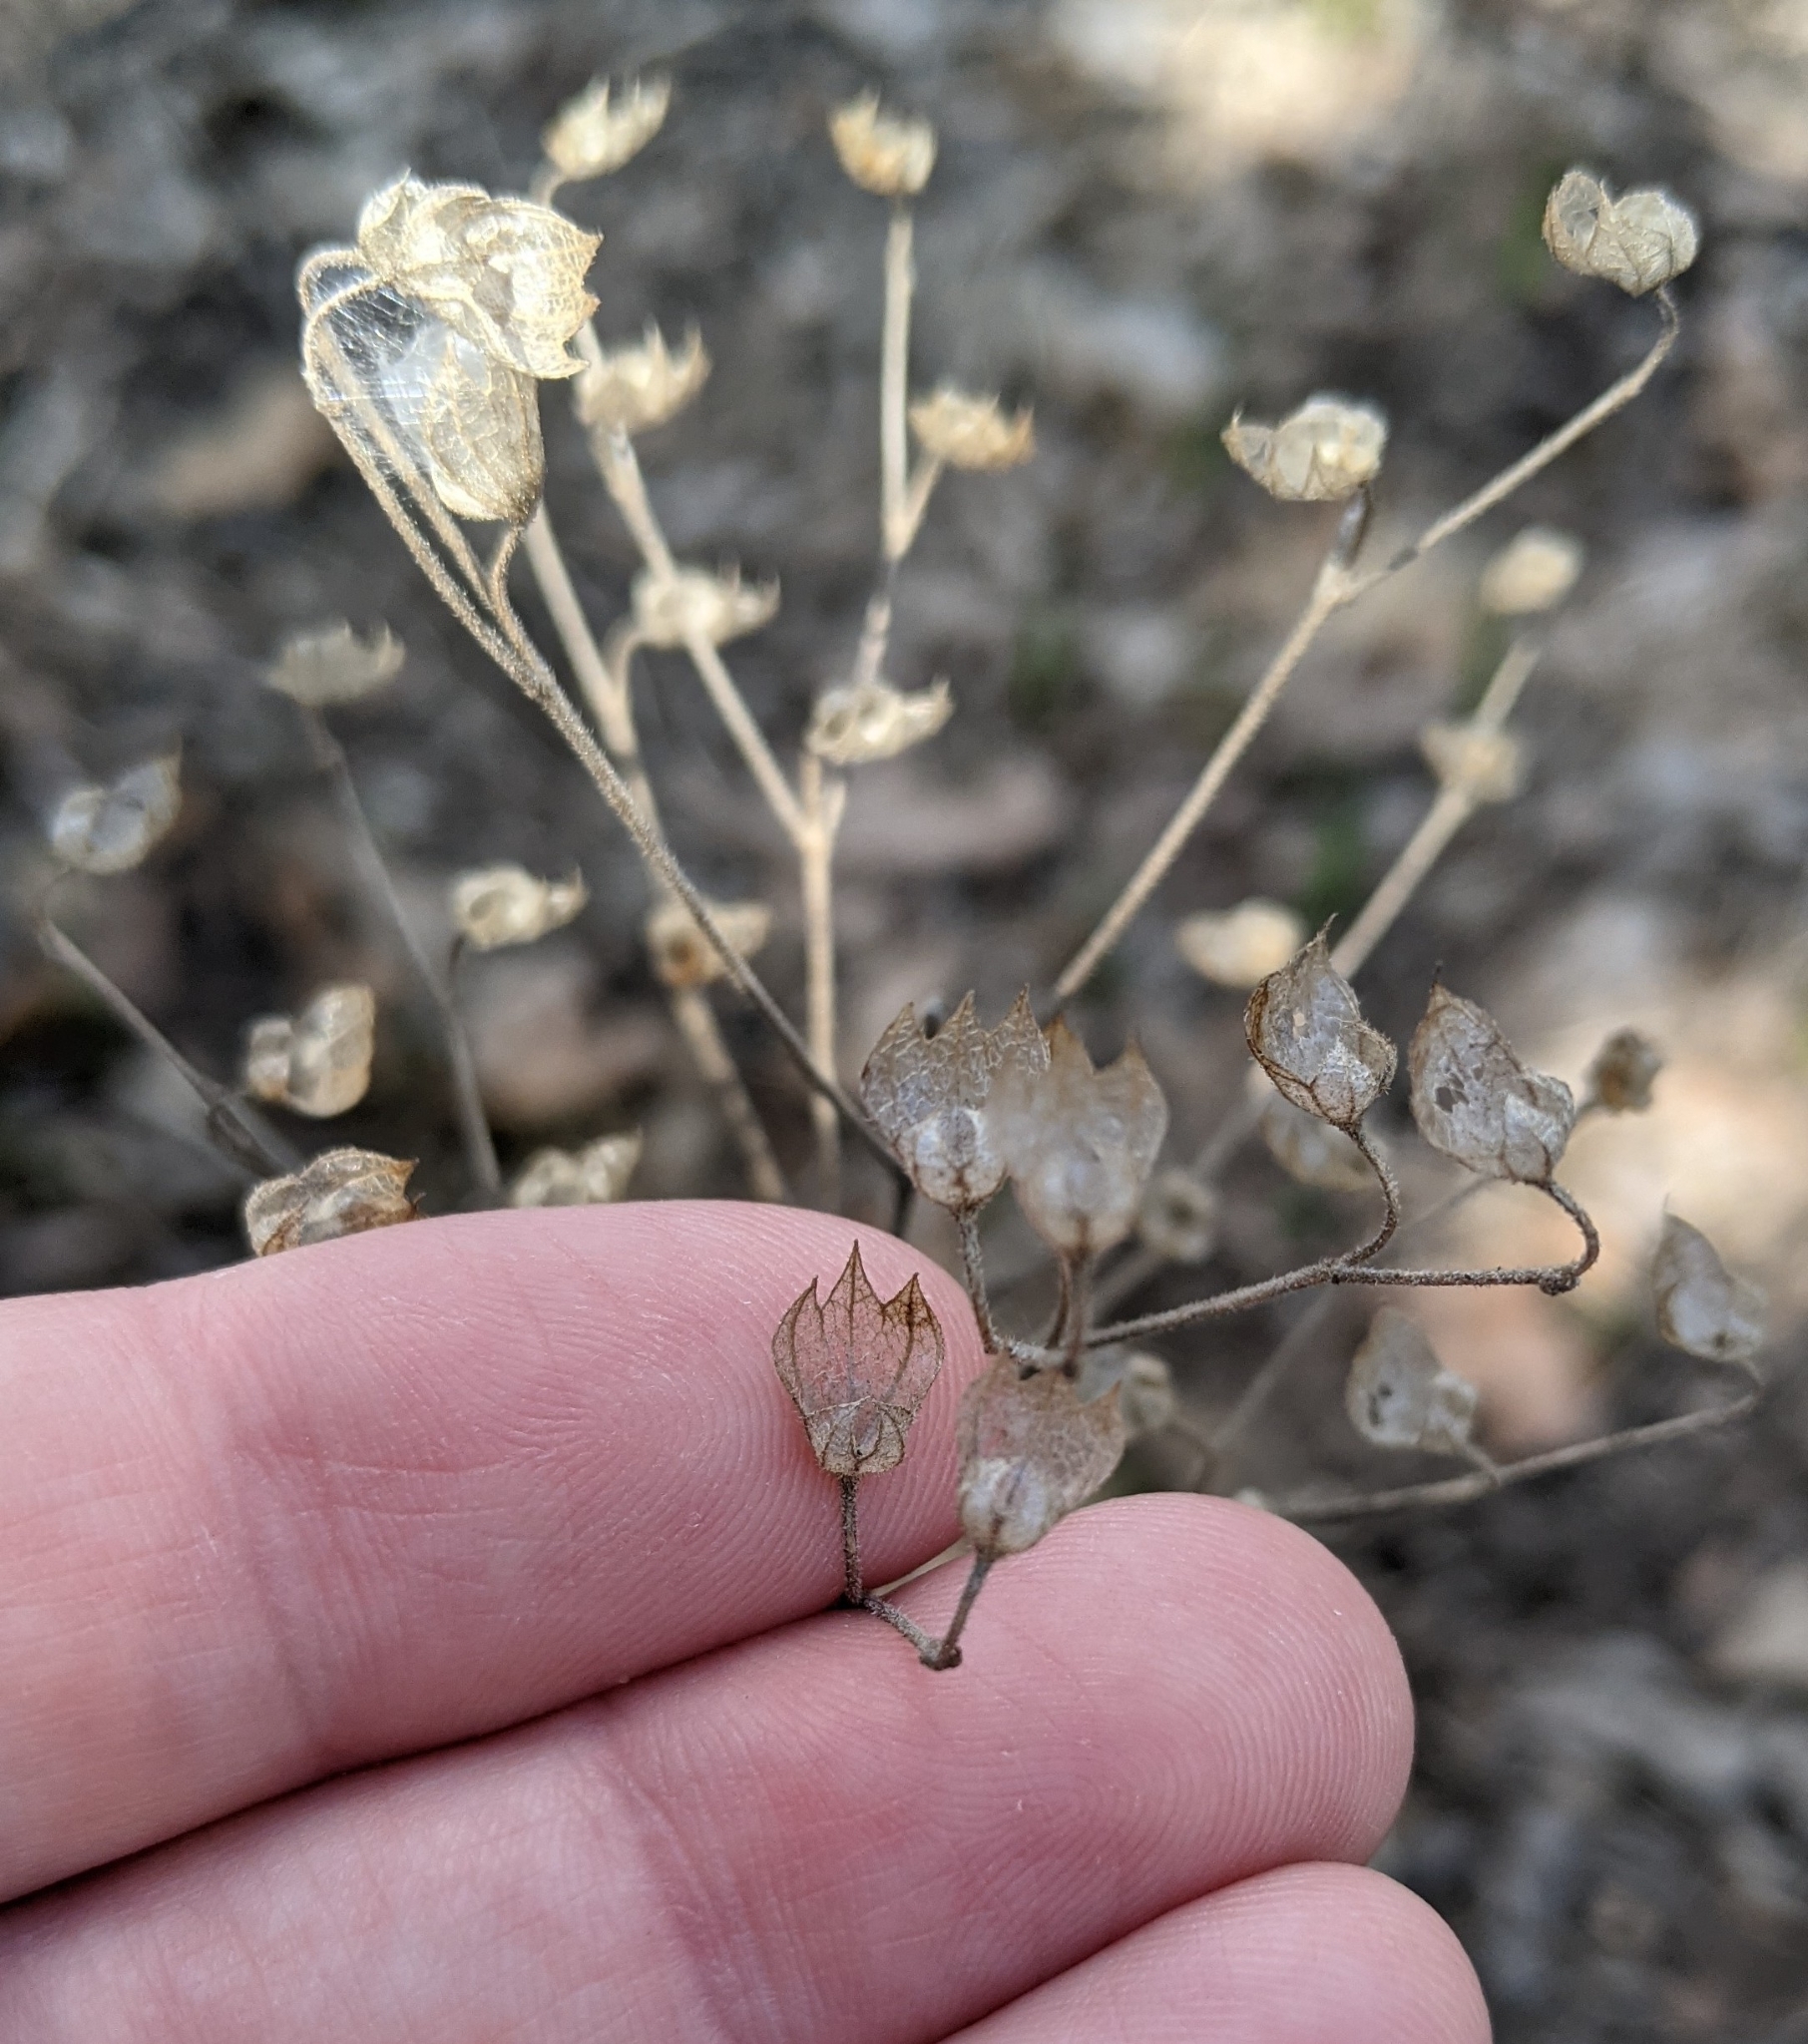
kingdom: Plantae
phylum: Tracheophyta
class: Magnoliopsida
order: Lamiales
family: Lamiaceae
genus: Trichostema
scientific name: Trichostema dichotomum
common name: Bastard pennyroyal
